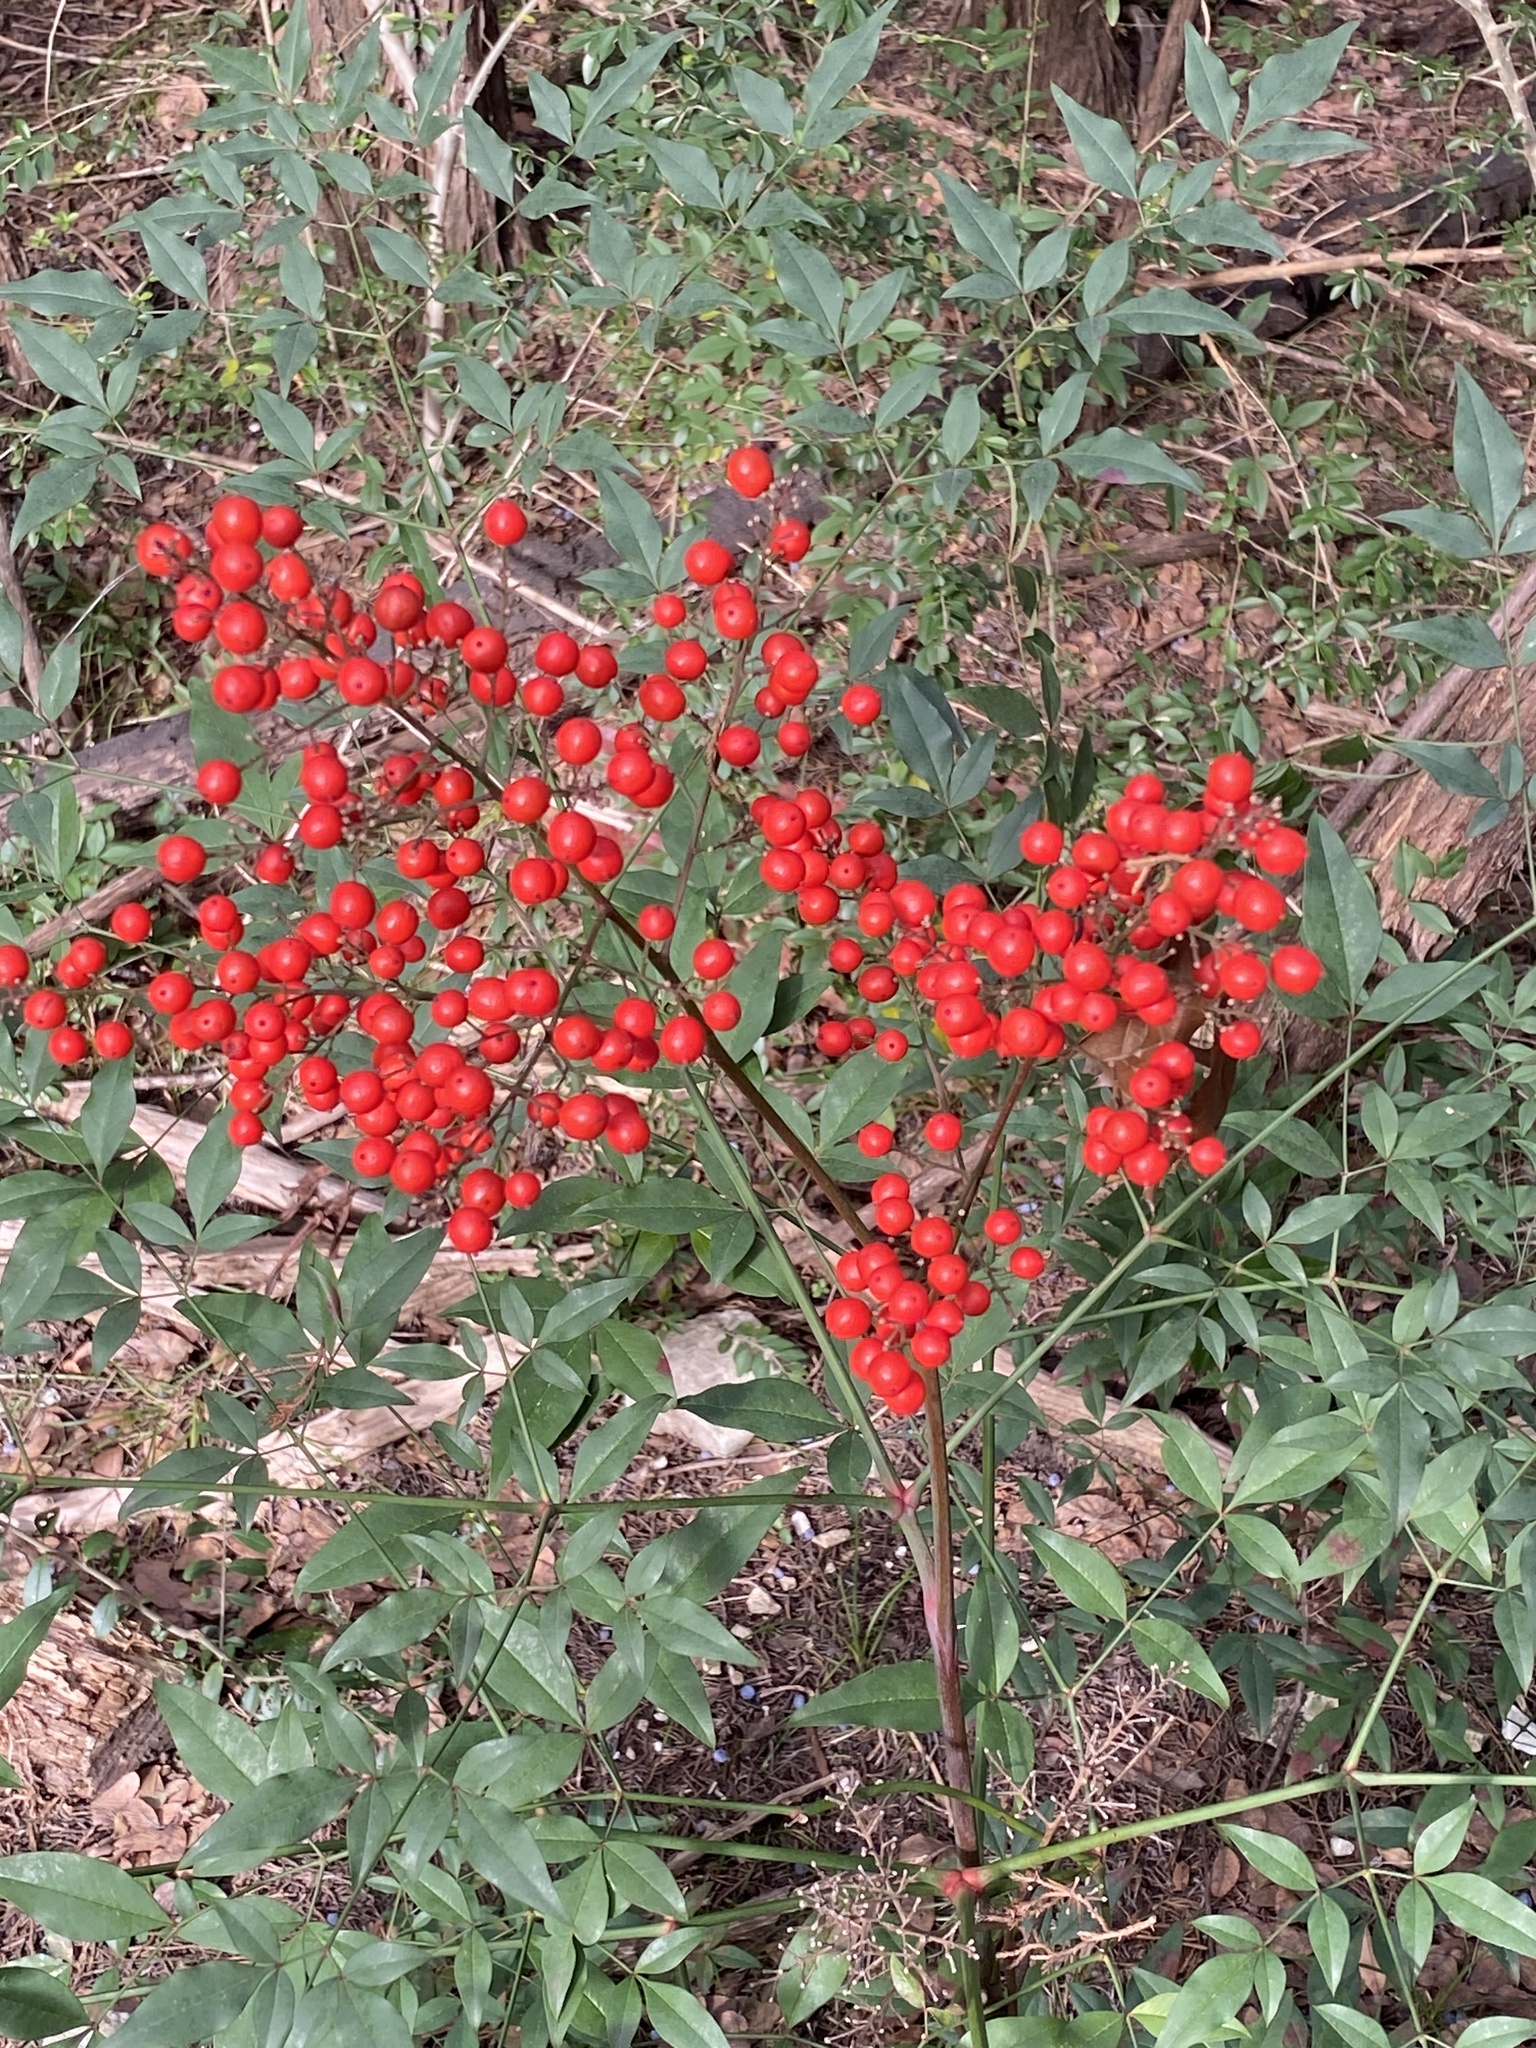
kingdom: Plantae
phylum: Tracheophyta
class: Magnoliopsida
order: Ranunculales
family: Berberidaceae
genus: Nandina
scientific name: Nandina domestica
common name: Sacred bamboo
